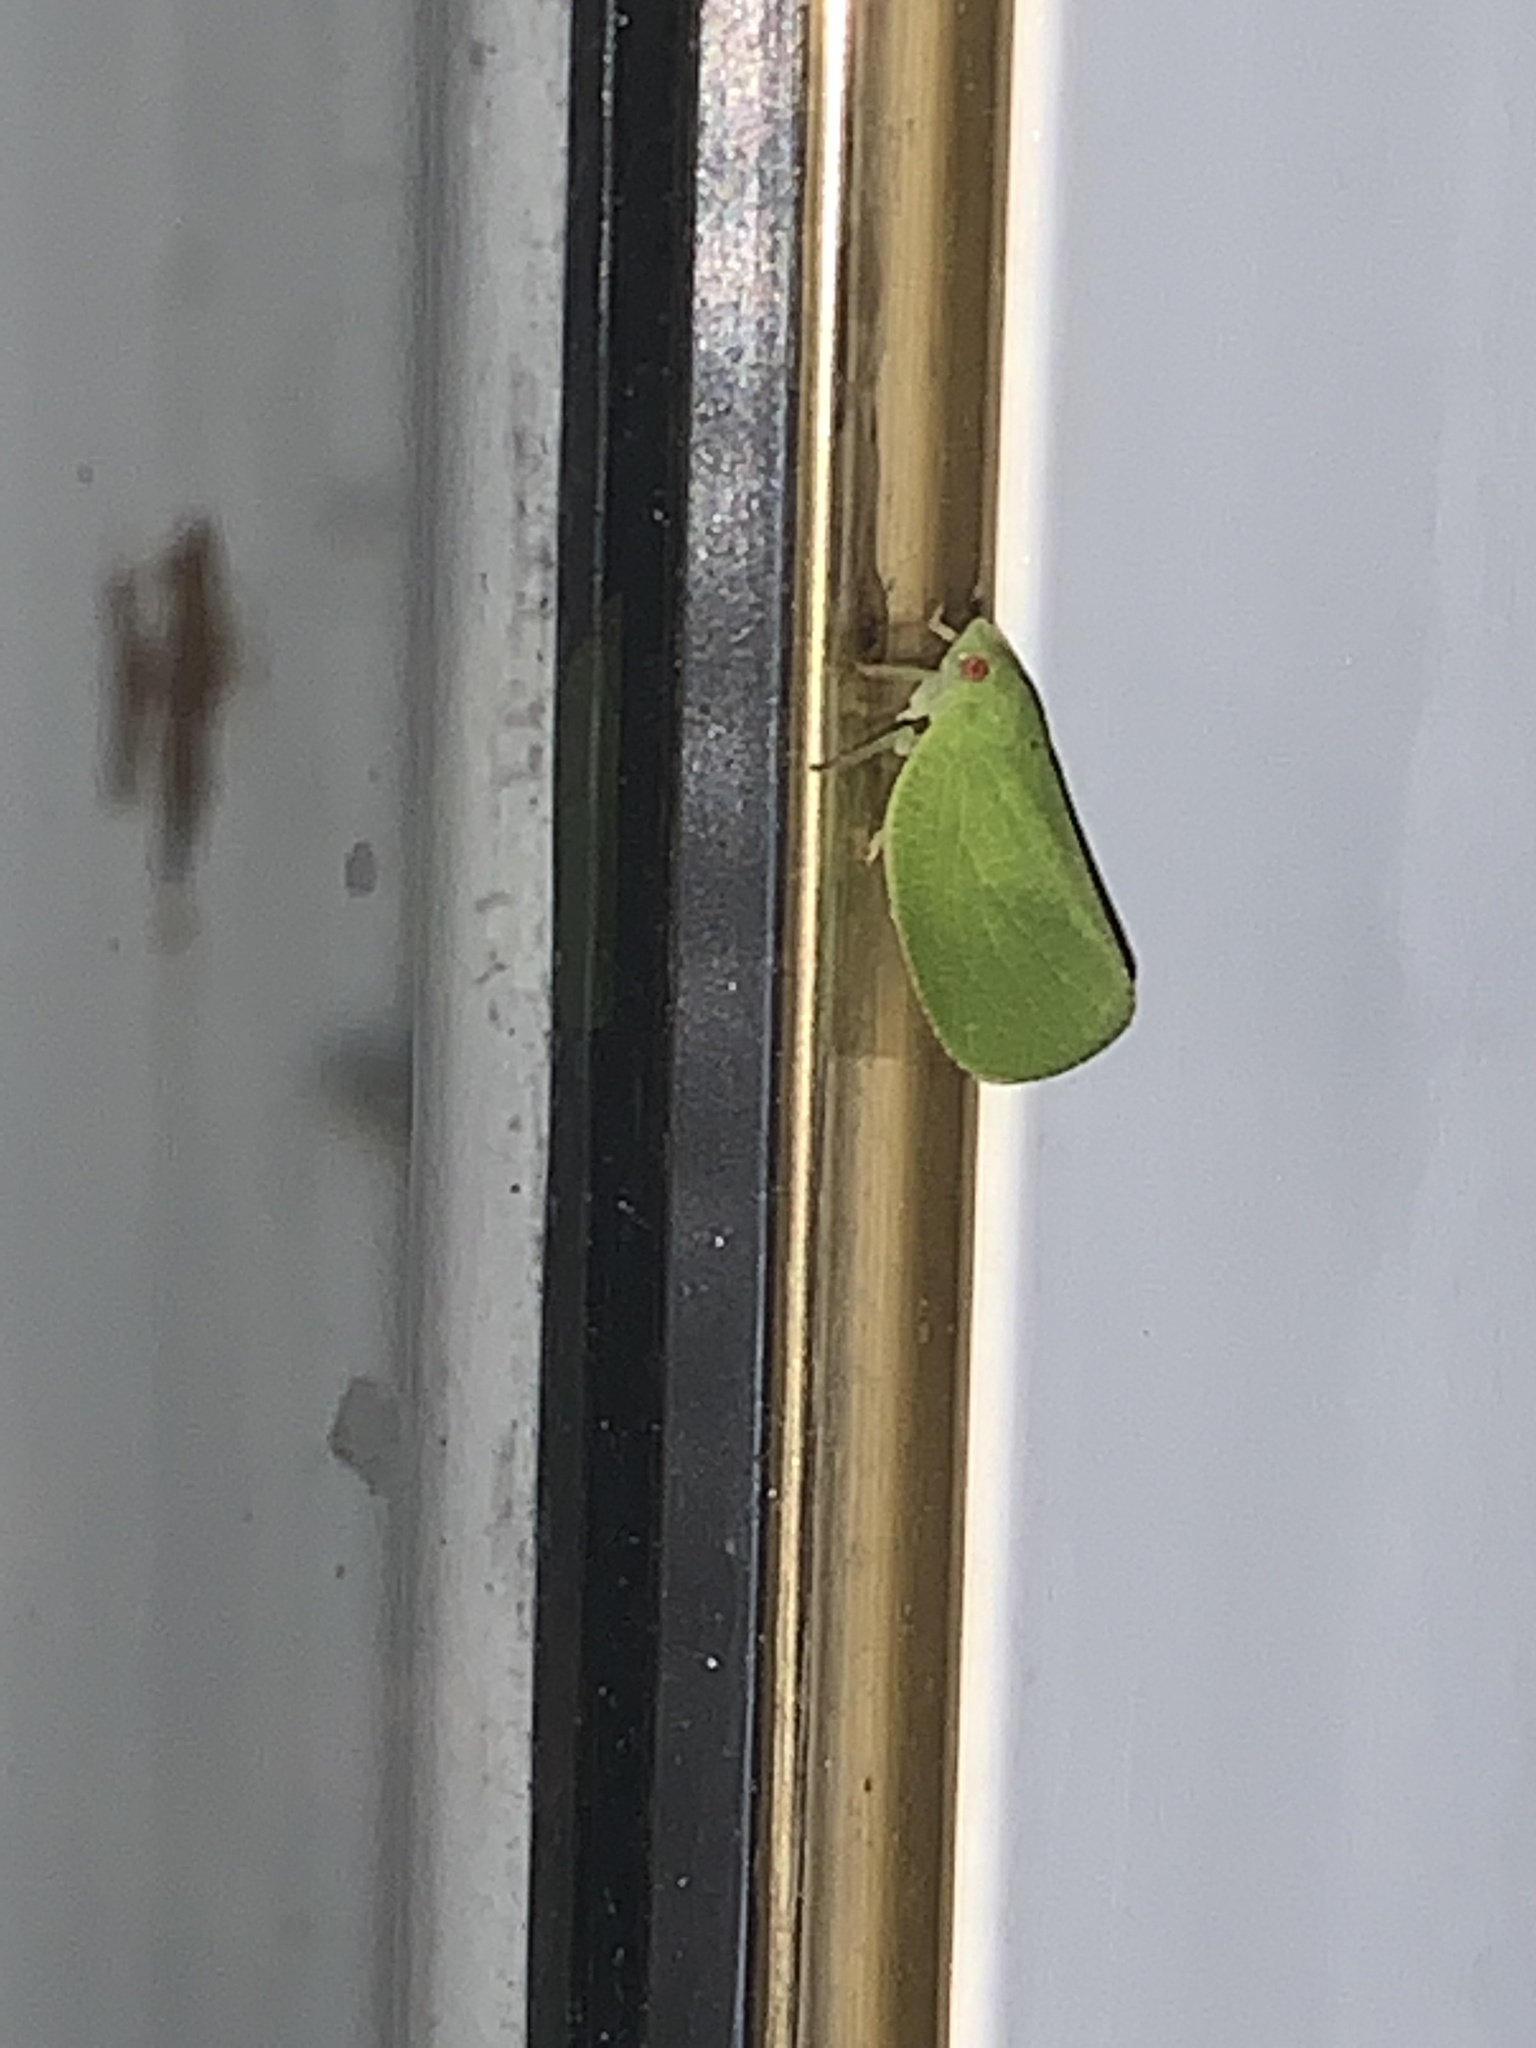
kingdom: Animalia
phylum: Arthropoda
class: Insecta
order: Hemiptera
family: Acanaloniidae
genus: Acanalonia
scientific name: Acanalonia conica
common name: Green cone-headed planthopper
